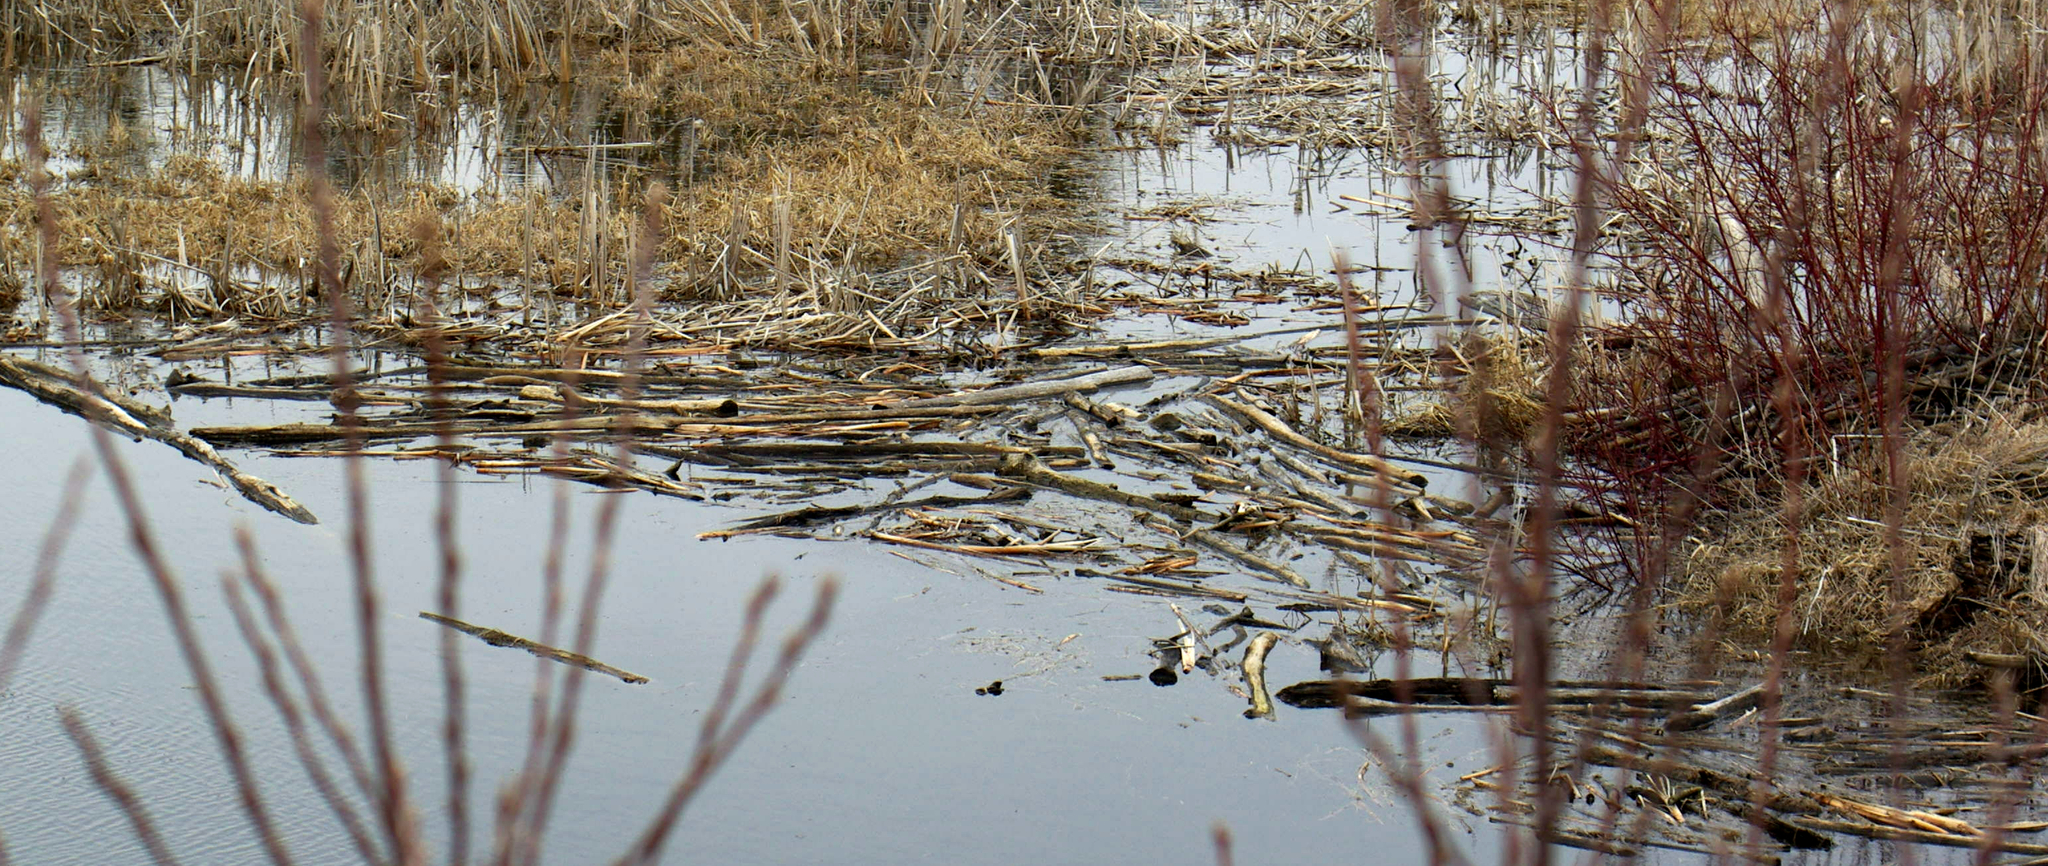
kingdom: Animalia
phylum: Chordata
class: Mammalia
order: Rodentia
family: Castoridae
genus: Castor
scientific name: Castor canadensis
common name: American beaver
